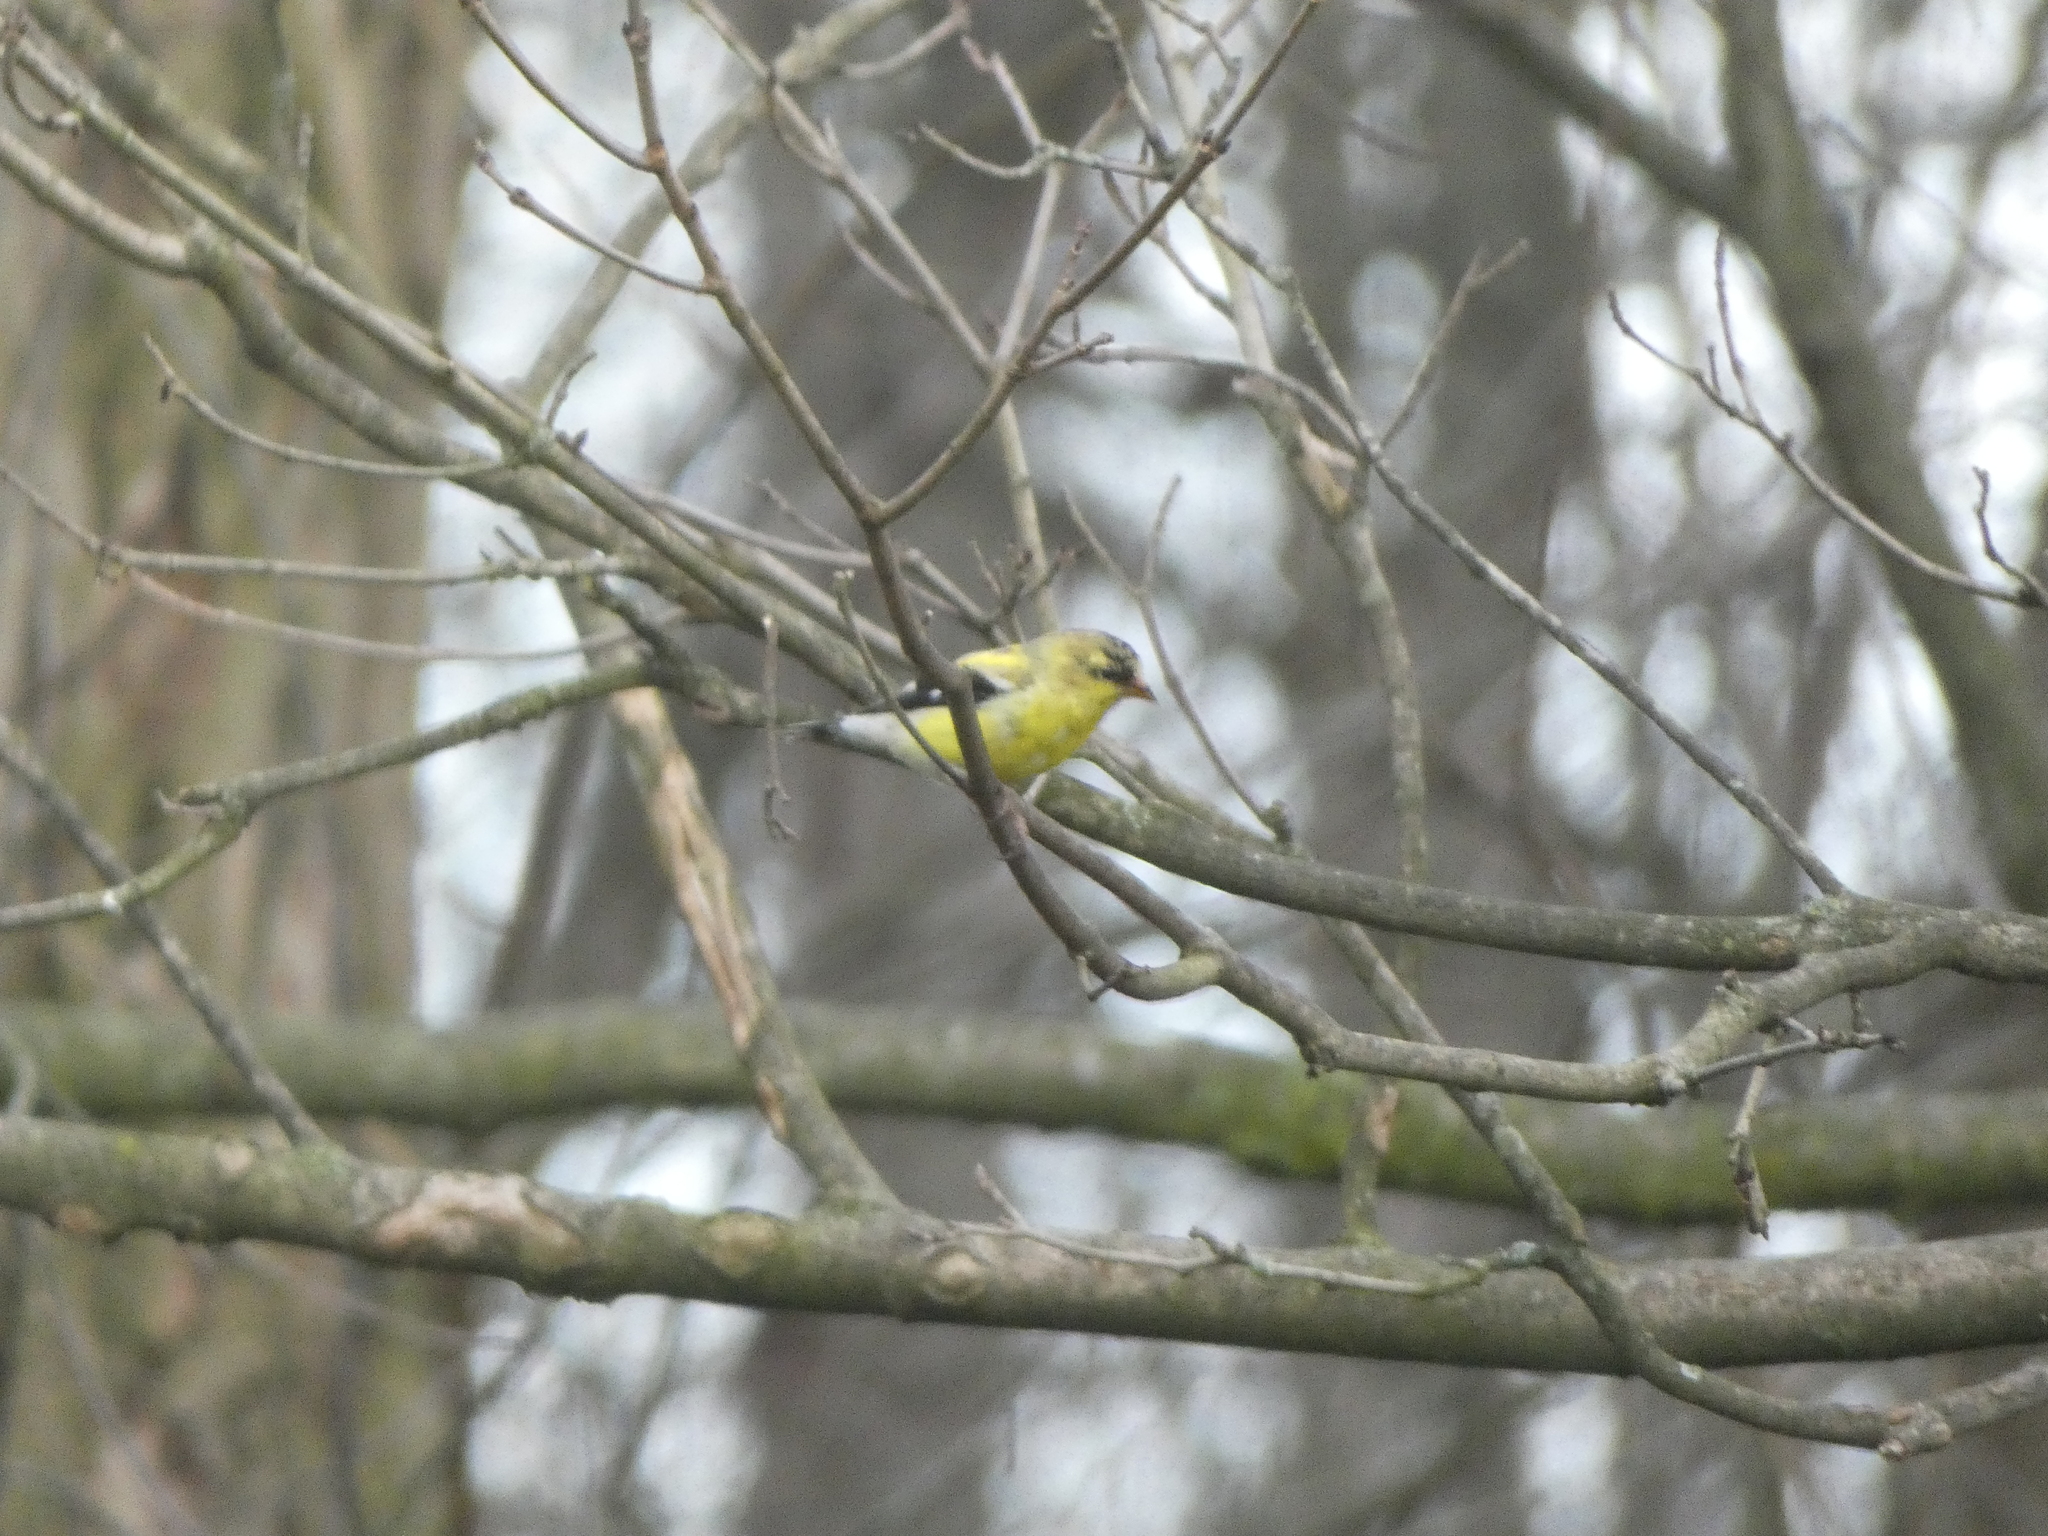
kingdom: Animalia
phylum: Chordata
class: Aves
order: Passeriformes
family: Fringillidae
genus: Spinus
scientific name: Spinus tristis
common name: American goldfinch
